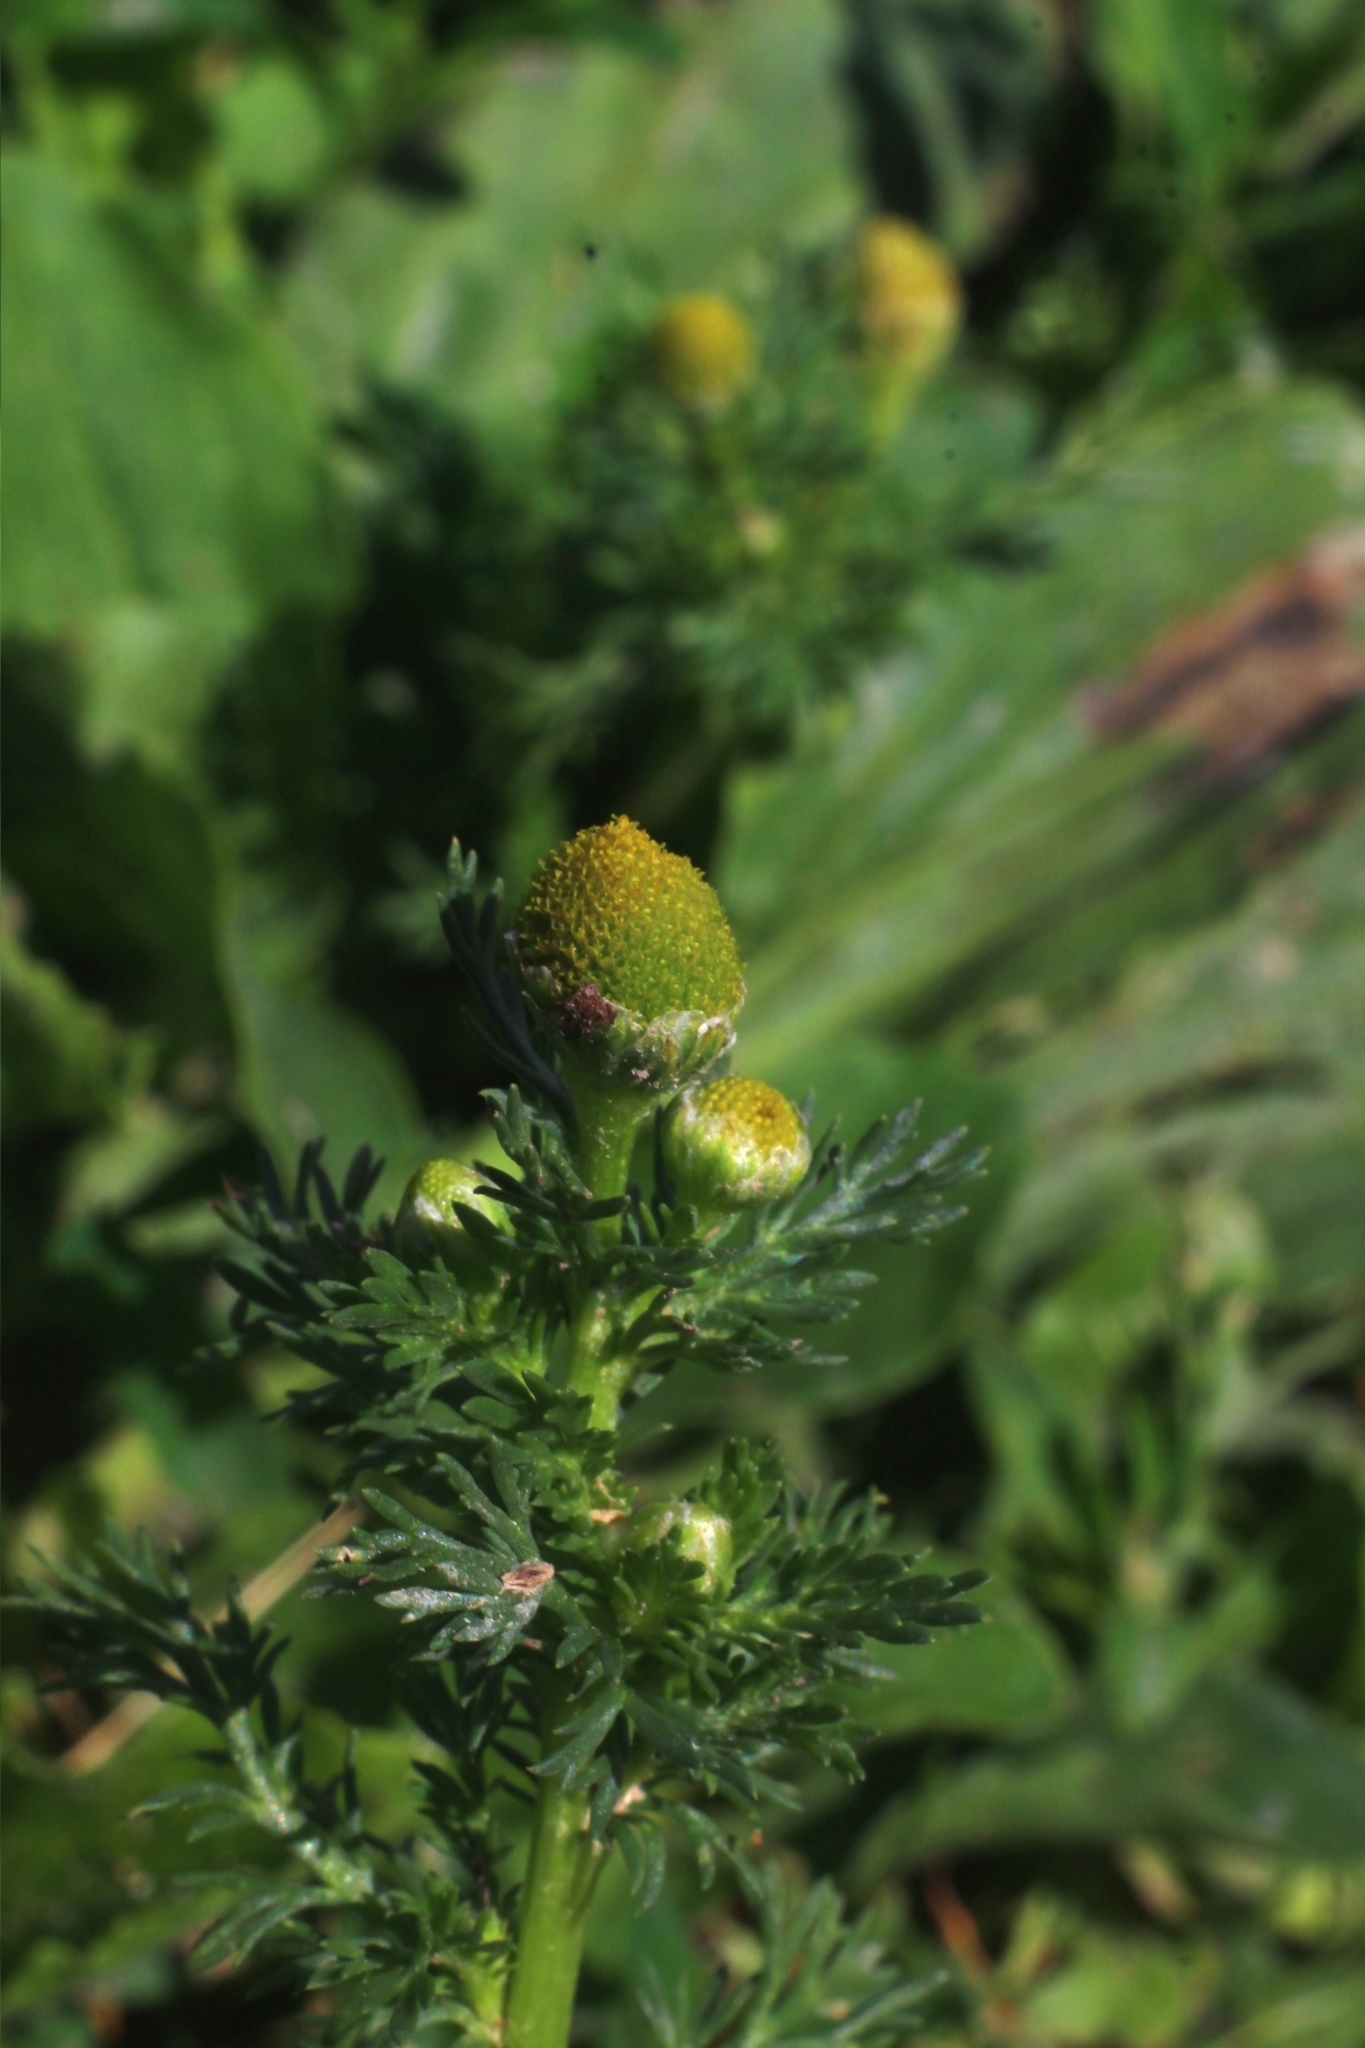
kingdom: Plantae
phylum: Tracheophyta
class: Magnoliopsida
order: Asterales
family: Asteraceae
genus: Matricaria
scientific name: Matricaria discoidea
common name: Disc mayweed
